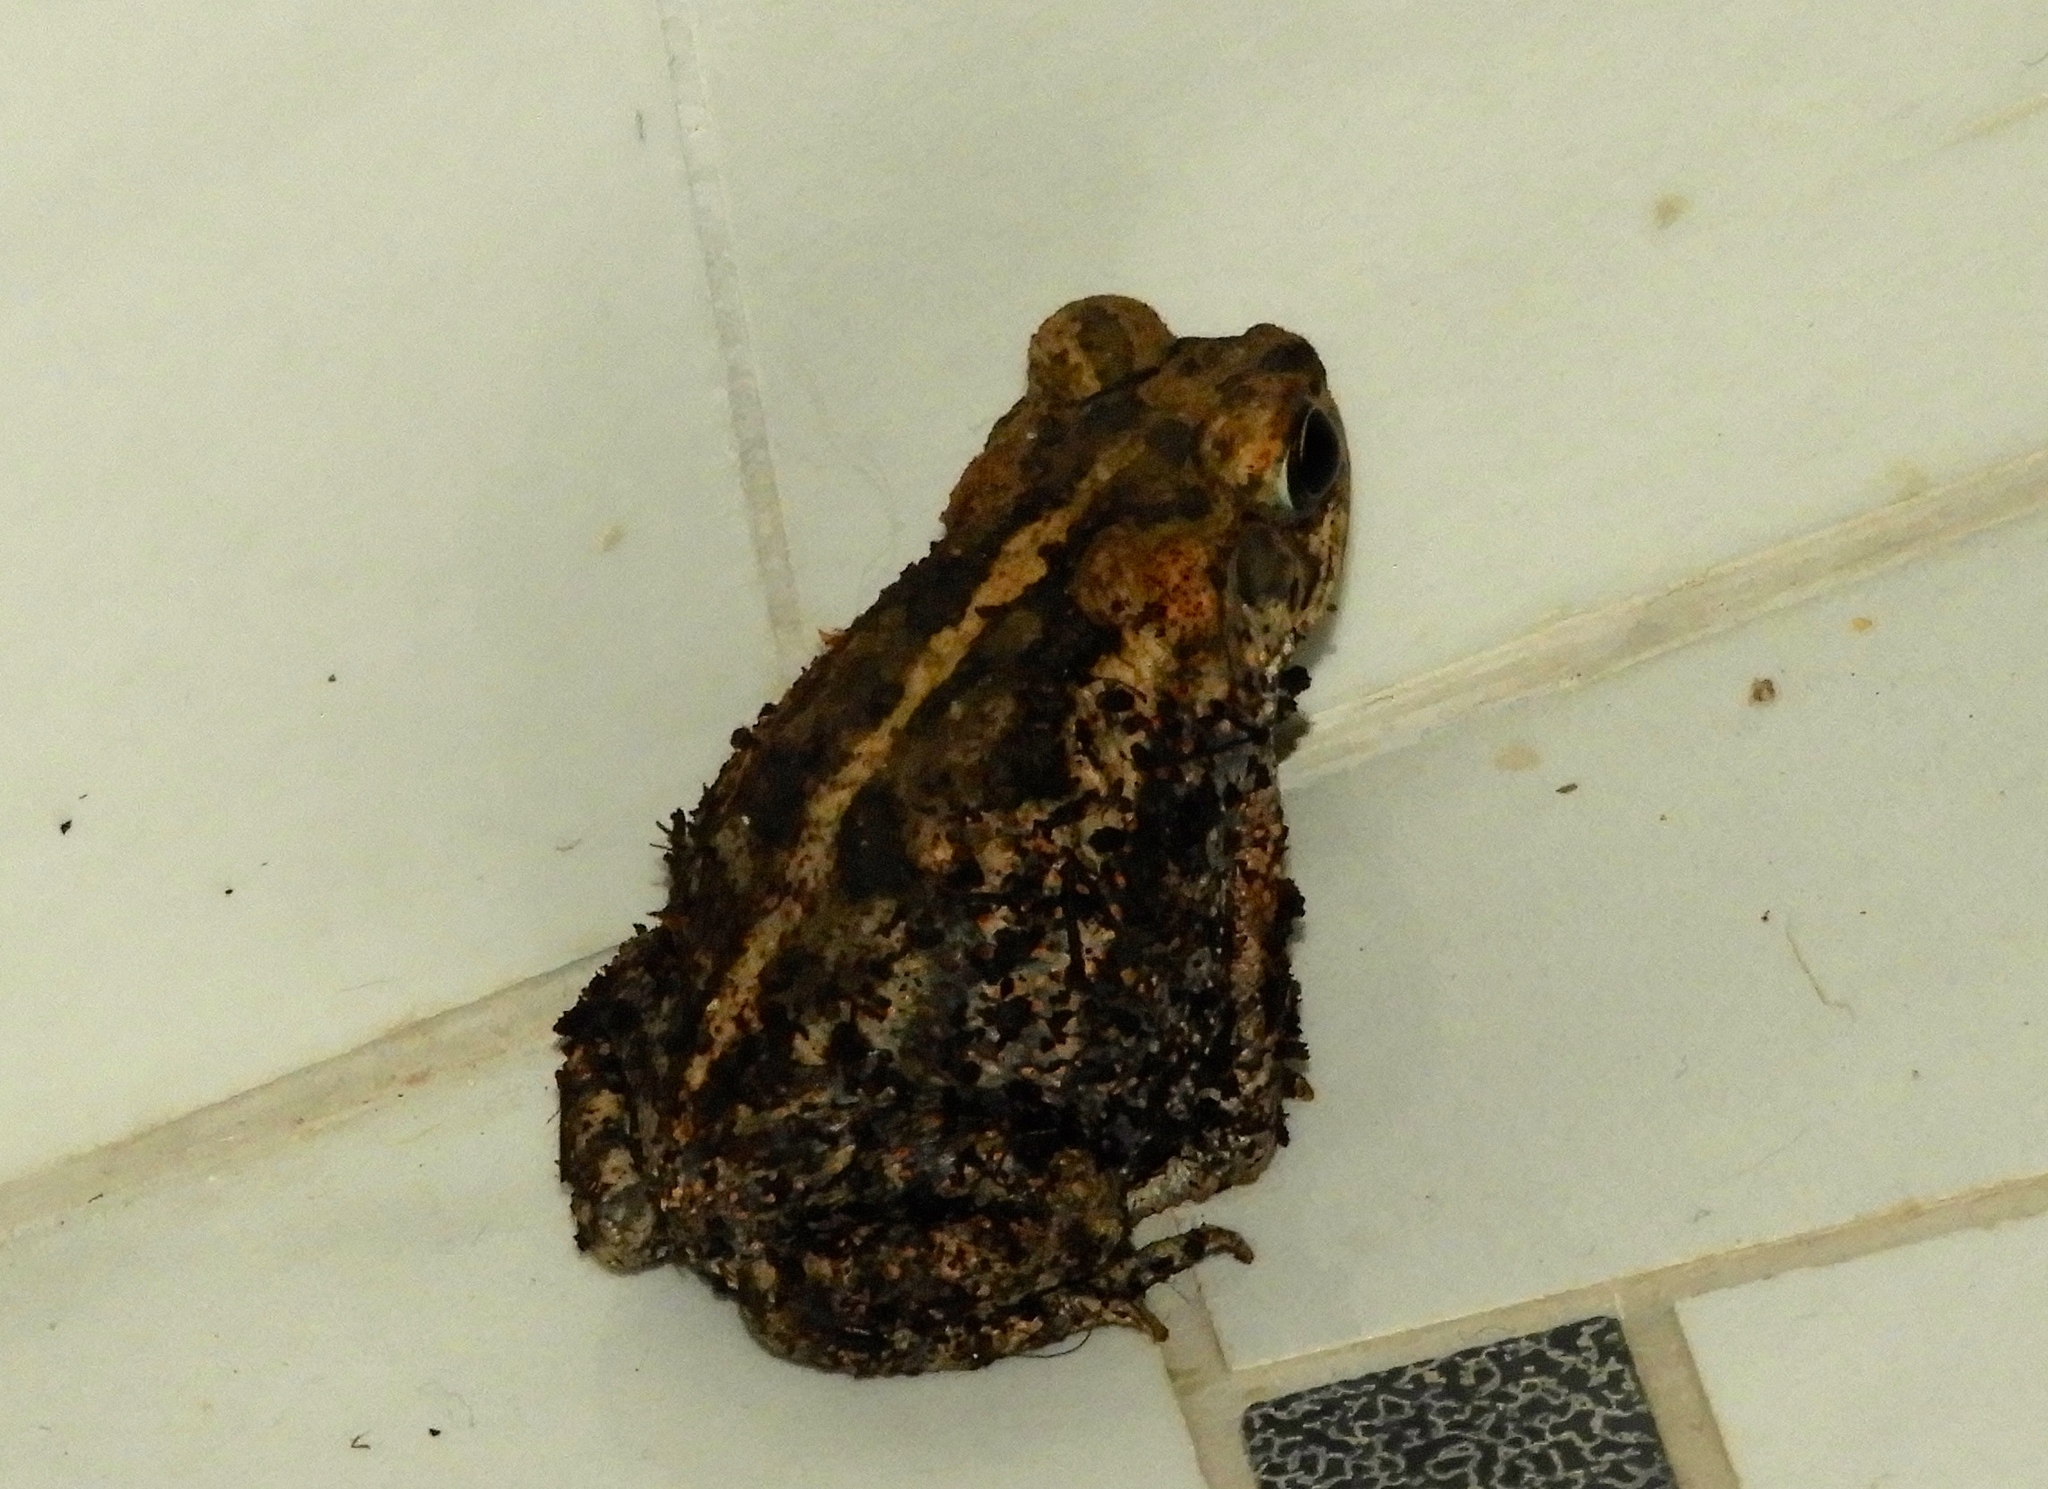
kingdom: Animalia
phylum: Chordata
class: Amphibia
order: Anura
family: Bufonidae
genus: Incilius
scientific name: Incilius mazatlanensis
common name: Sinaloa toad
